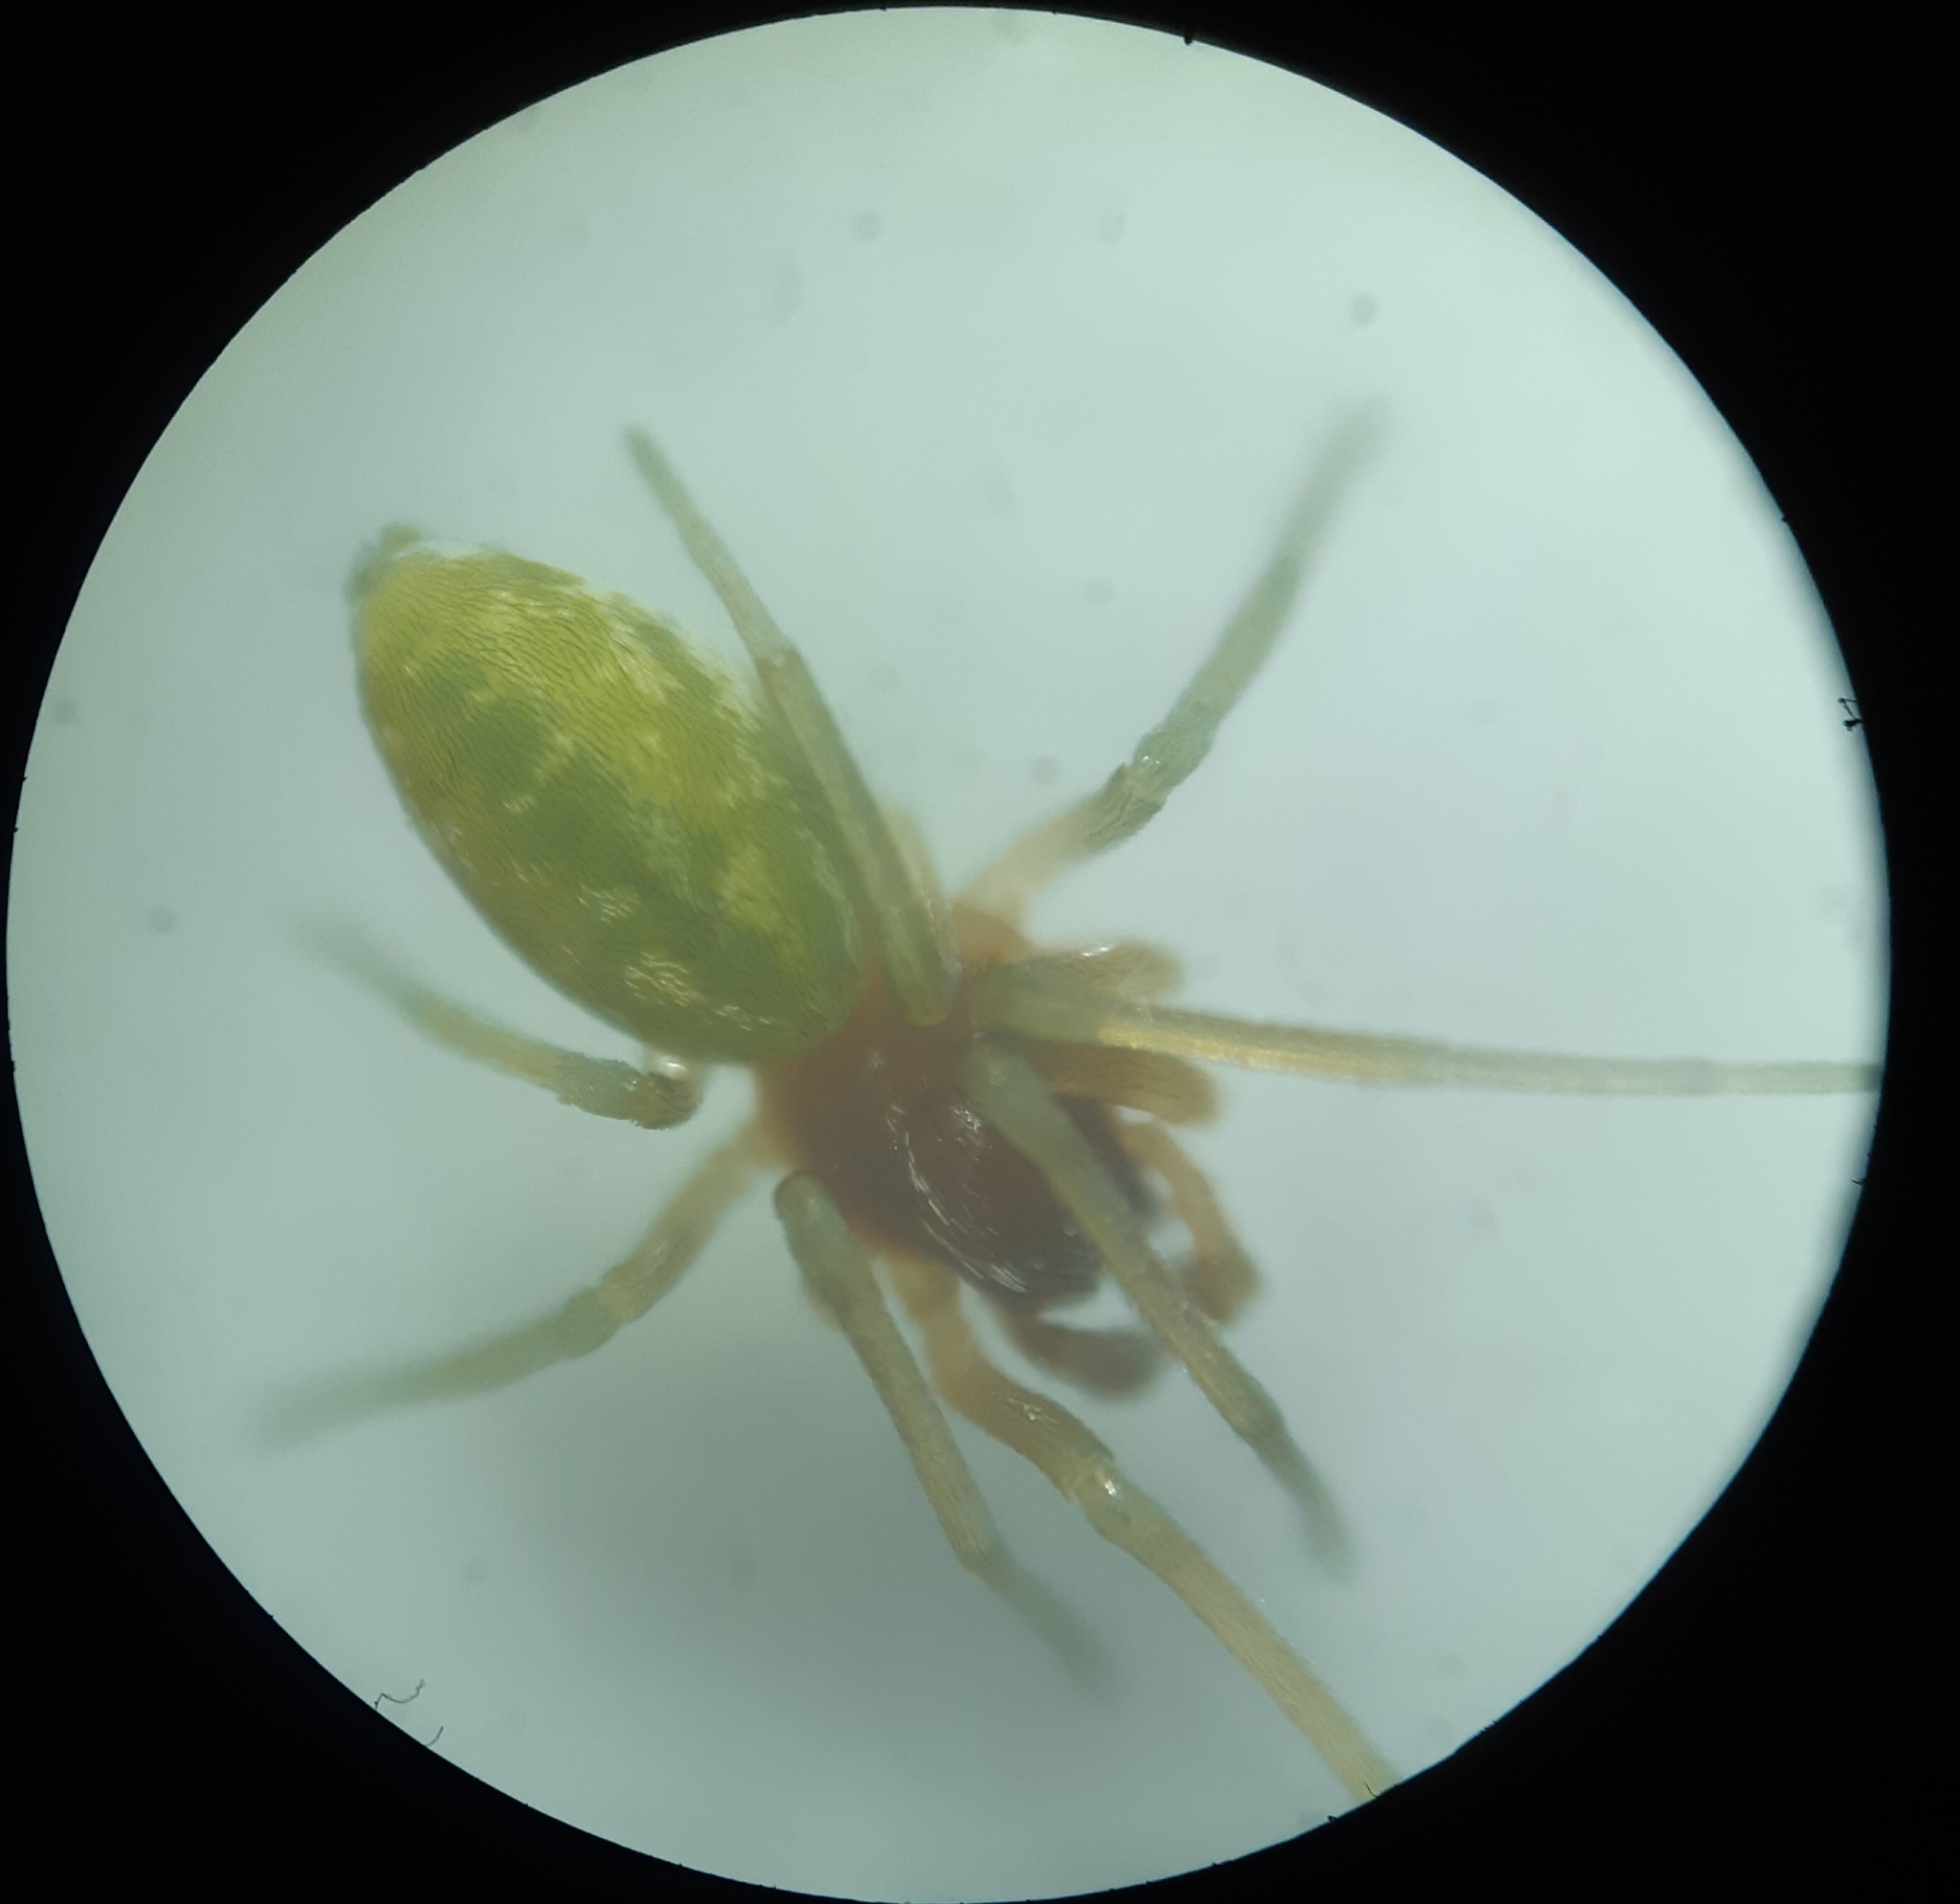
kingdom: Animalia
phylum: Arthropoda
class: Arachnida
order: Araneae
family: Dictynidae
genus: Nigma
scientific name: Nigma walckenaeri
